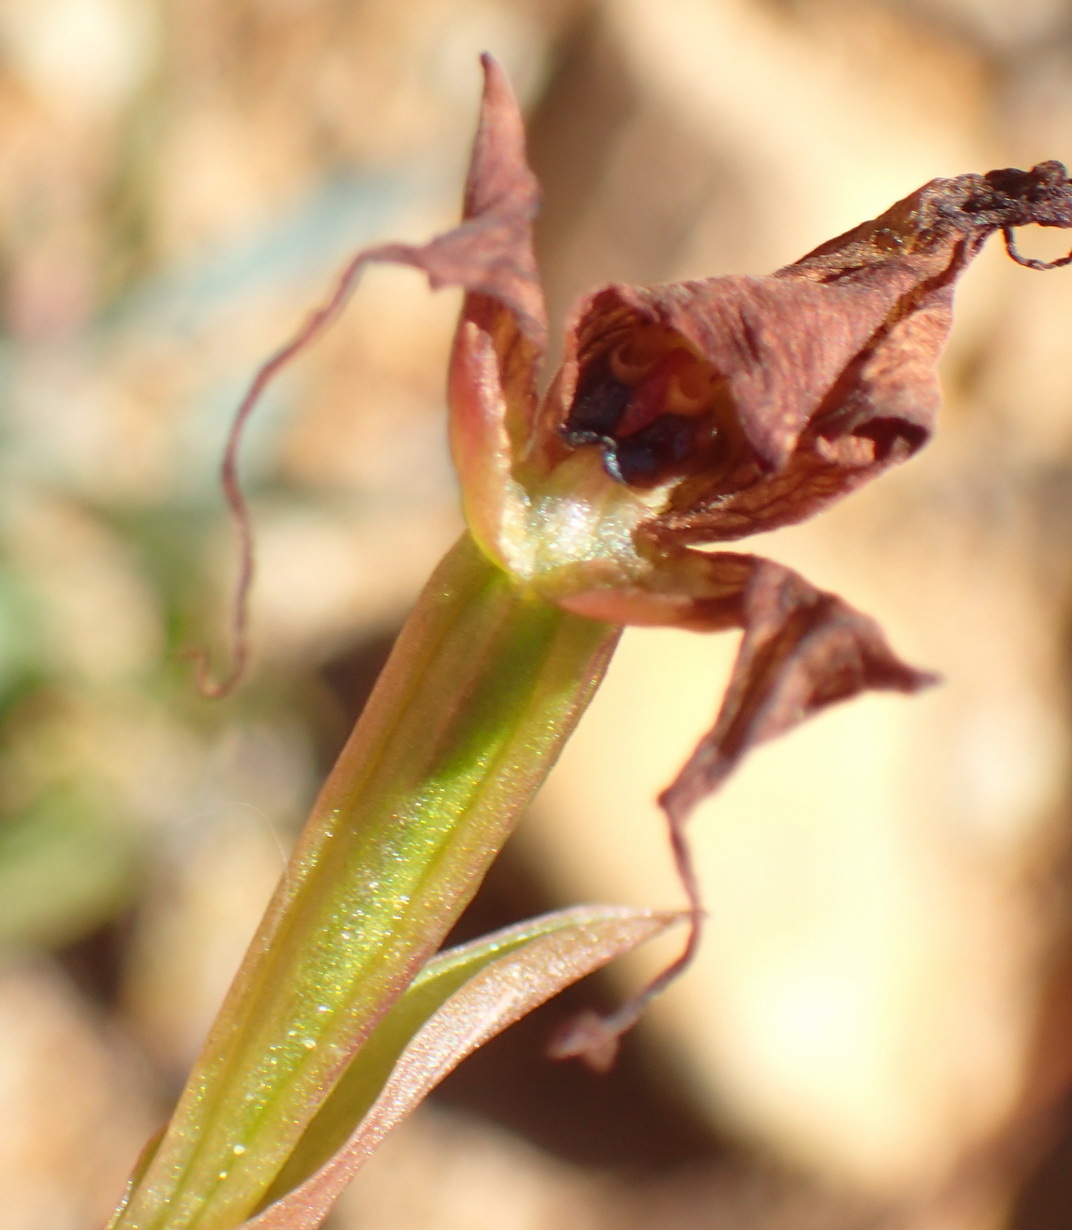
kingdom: Plantae
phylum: Tracheophyta
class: Liliopsida
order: Asparagales
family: Orchidaceae
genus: Disperis
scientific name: Disperis capensis
